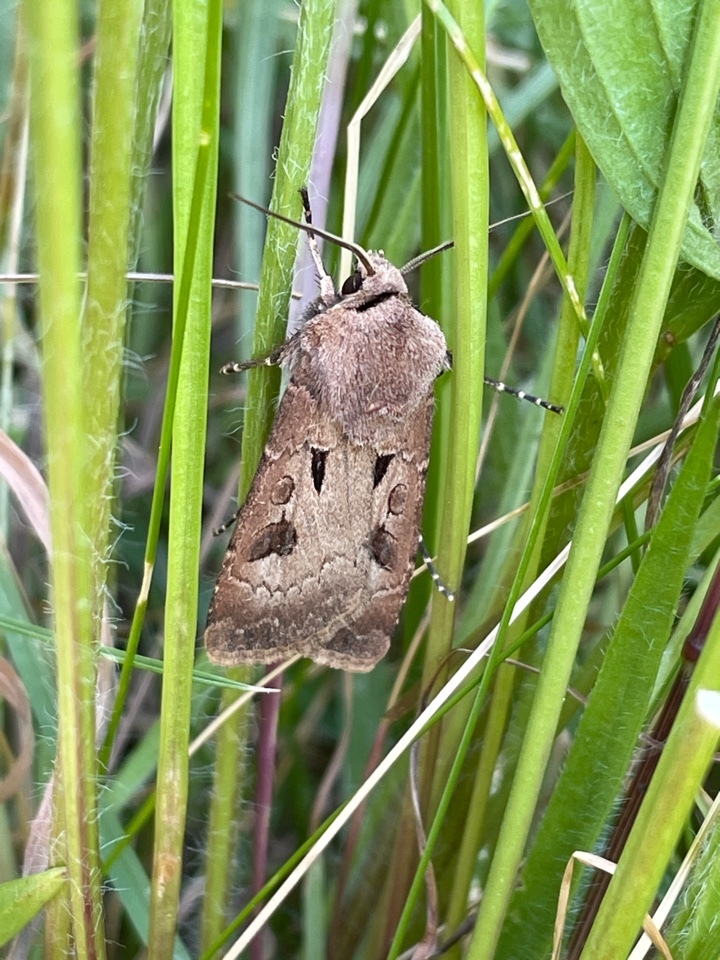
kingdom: Animalia
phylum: Arthropoda
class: Insecta
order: Lepidoptera
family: Noctuidae
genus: Agrotis
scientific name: Agrotis exclamationis
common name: Heart and dart
